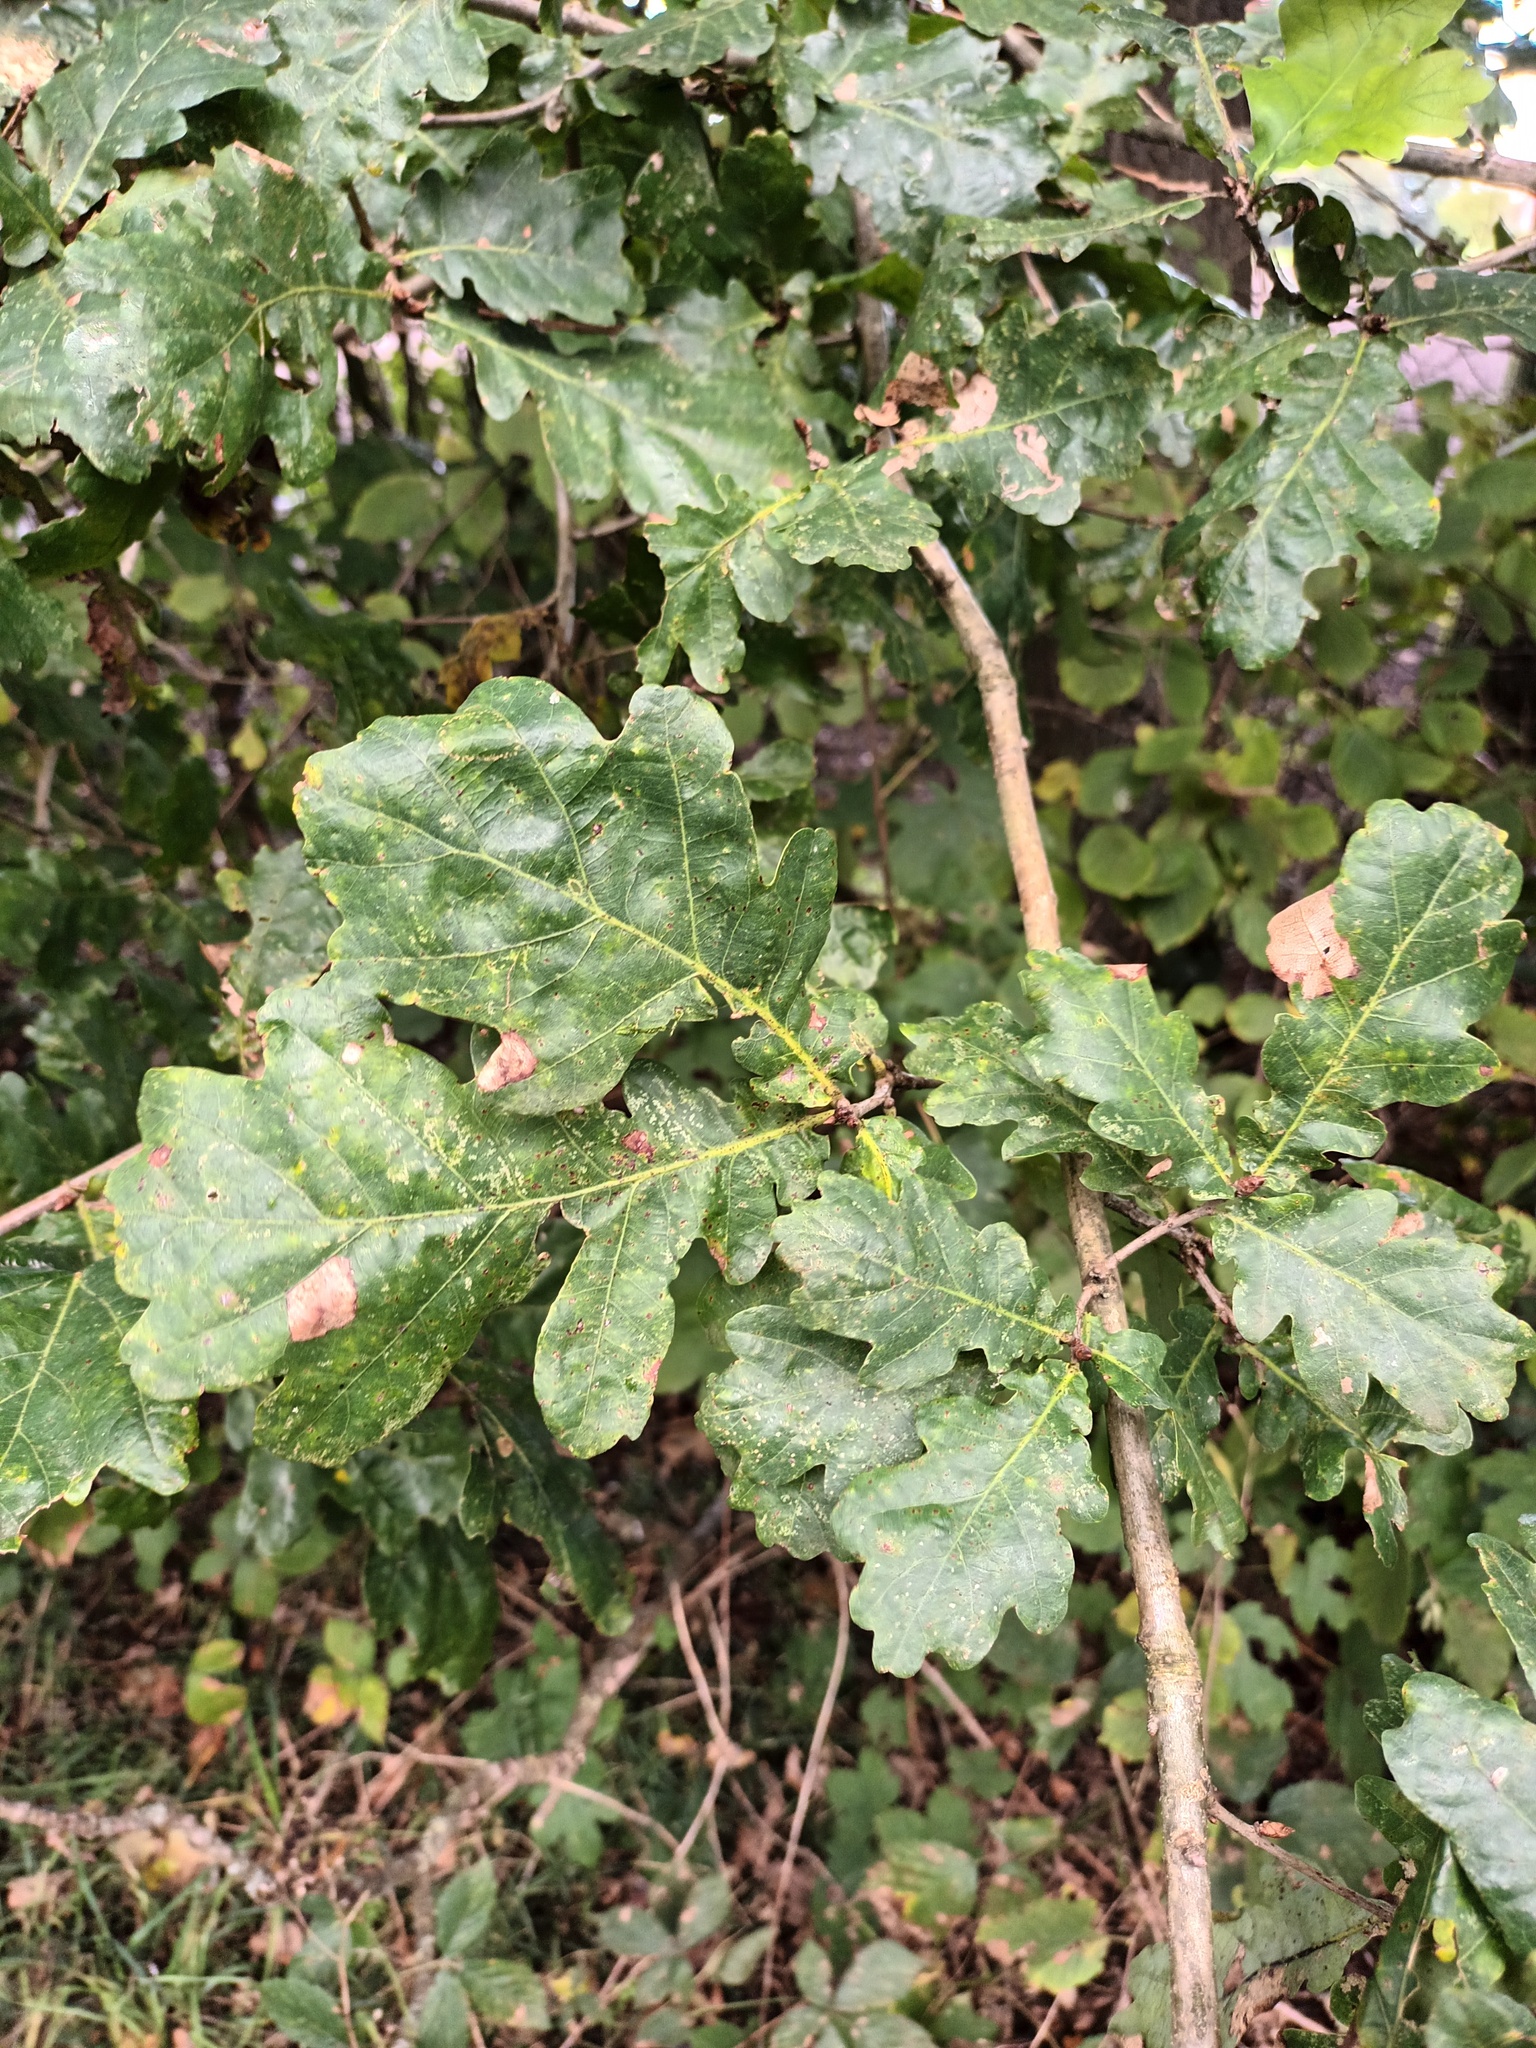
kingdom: Plantae
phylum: Tracheophyta
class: Magnoliopsida
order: Fagales
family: Fagaceae
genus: Quercus
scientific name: Quercus robur
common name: Pedunculate oak
